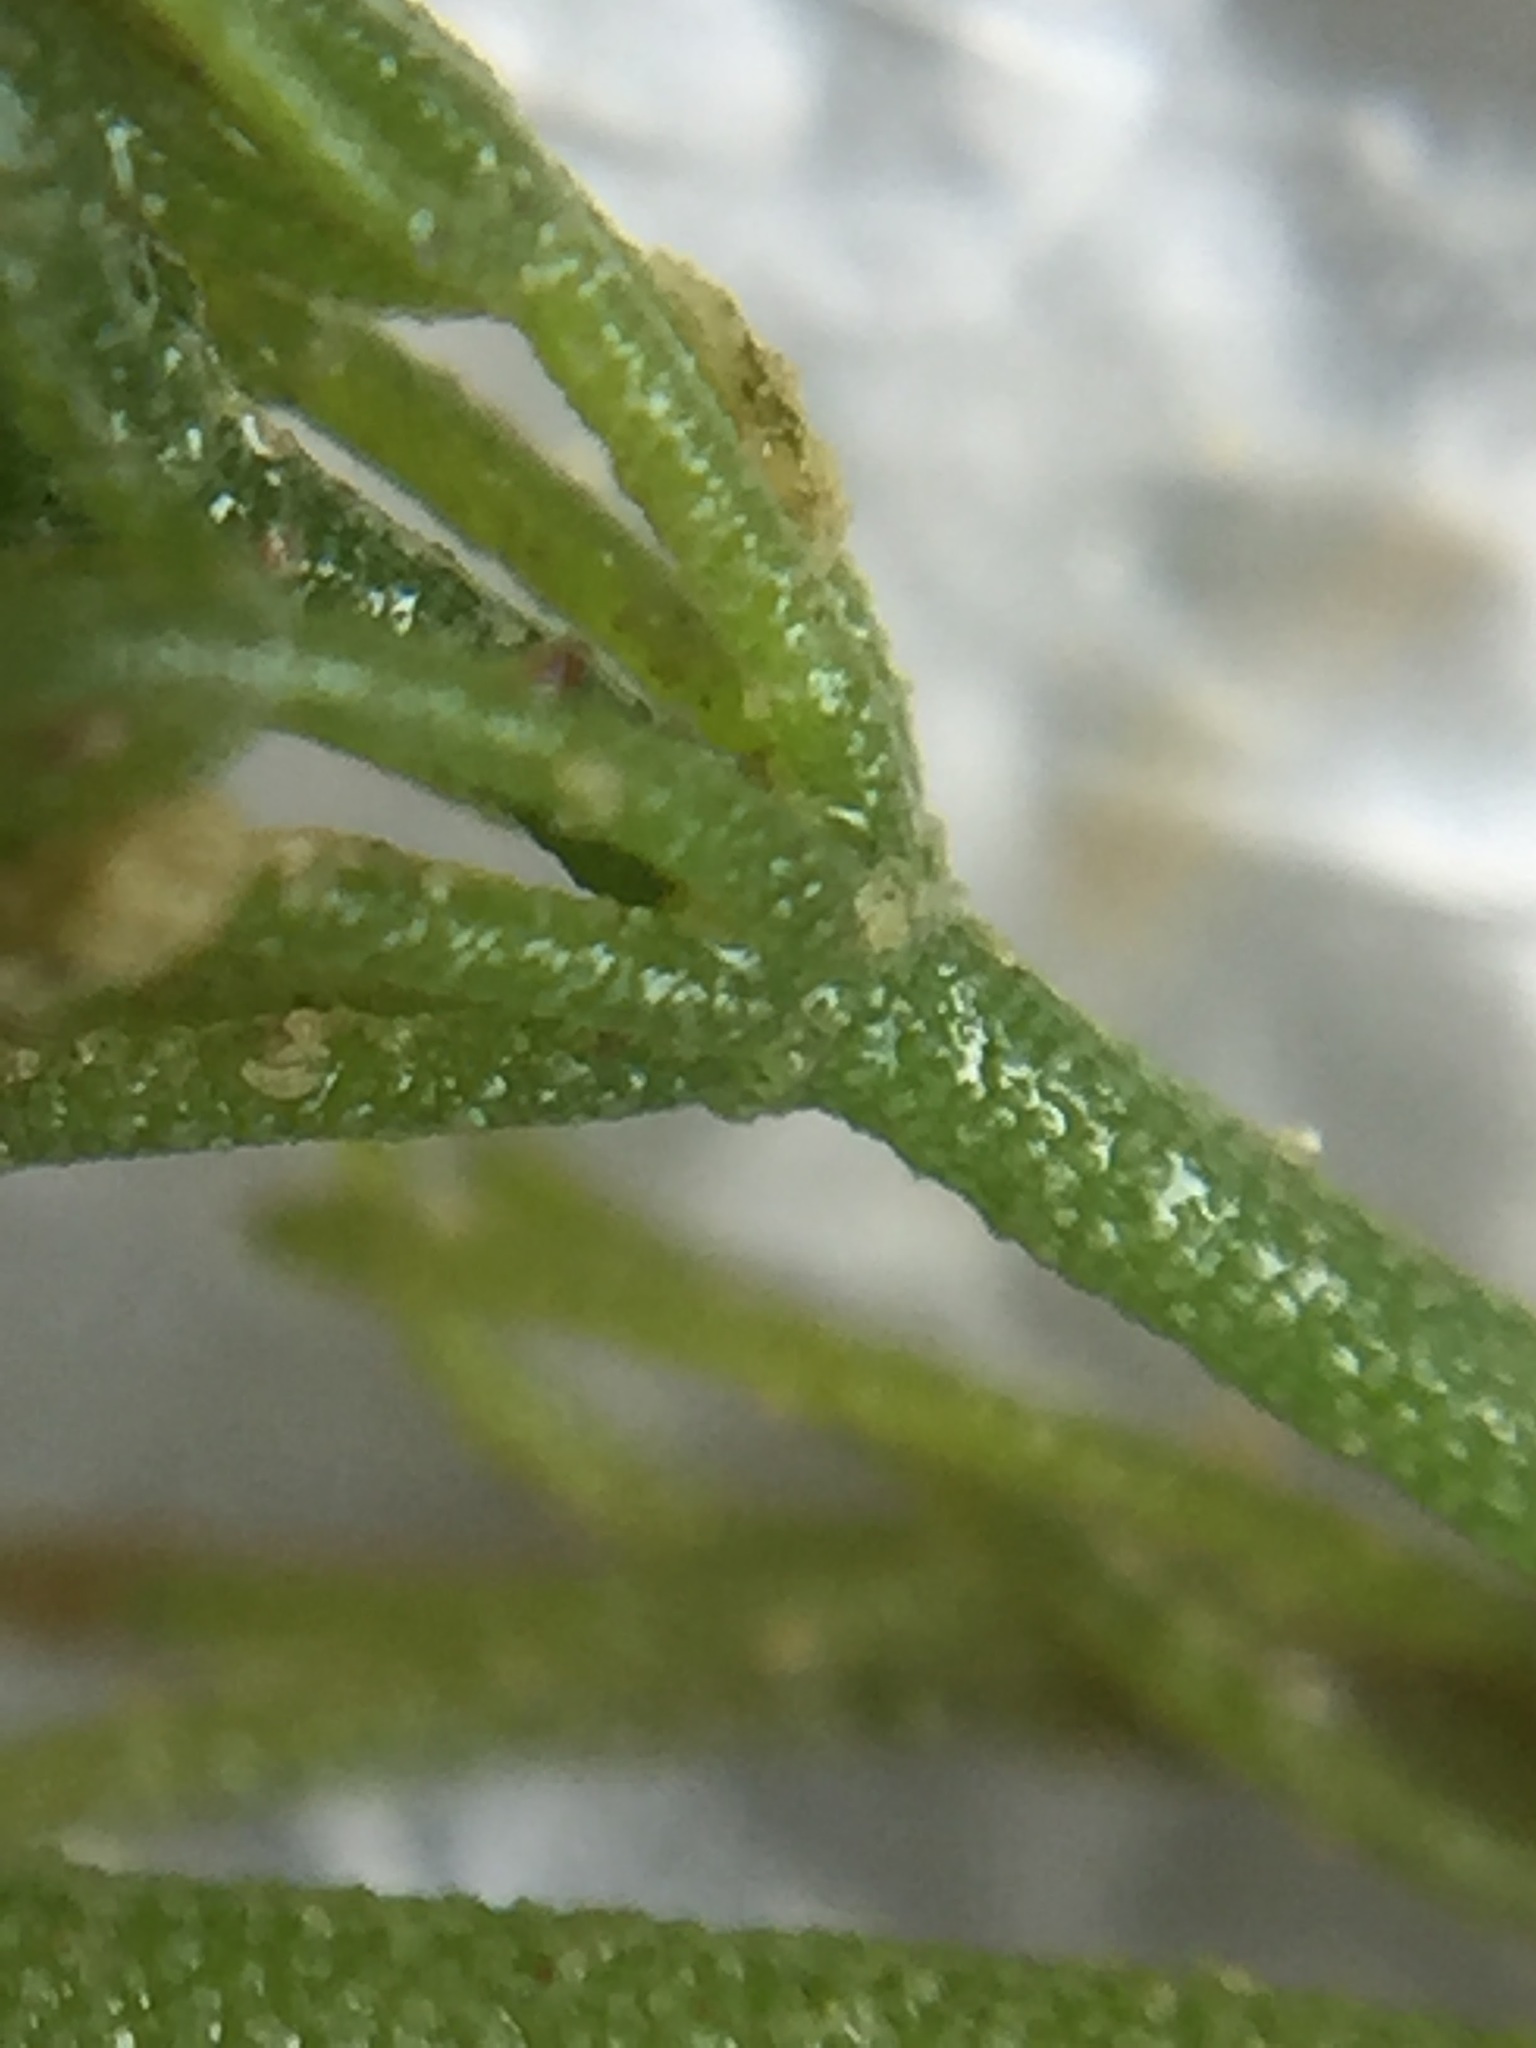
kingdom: Plantae
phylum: Charophyta
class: Charophyceae
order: Charales
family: Characeae
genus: Chara
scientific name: Chara
